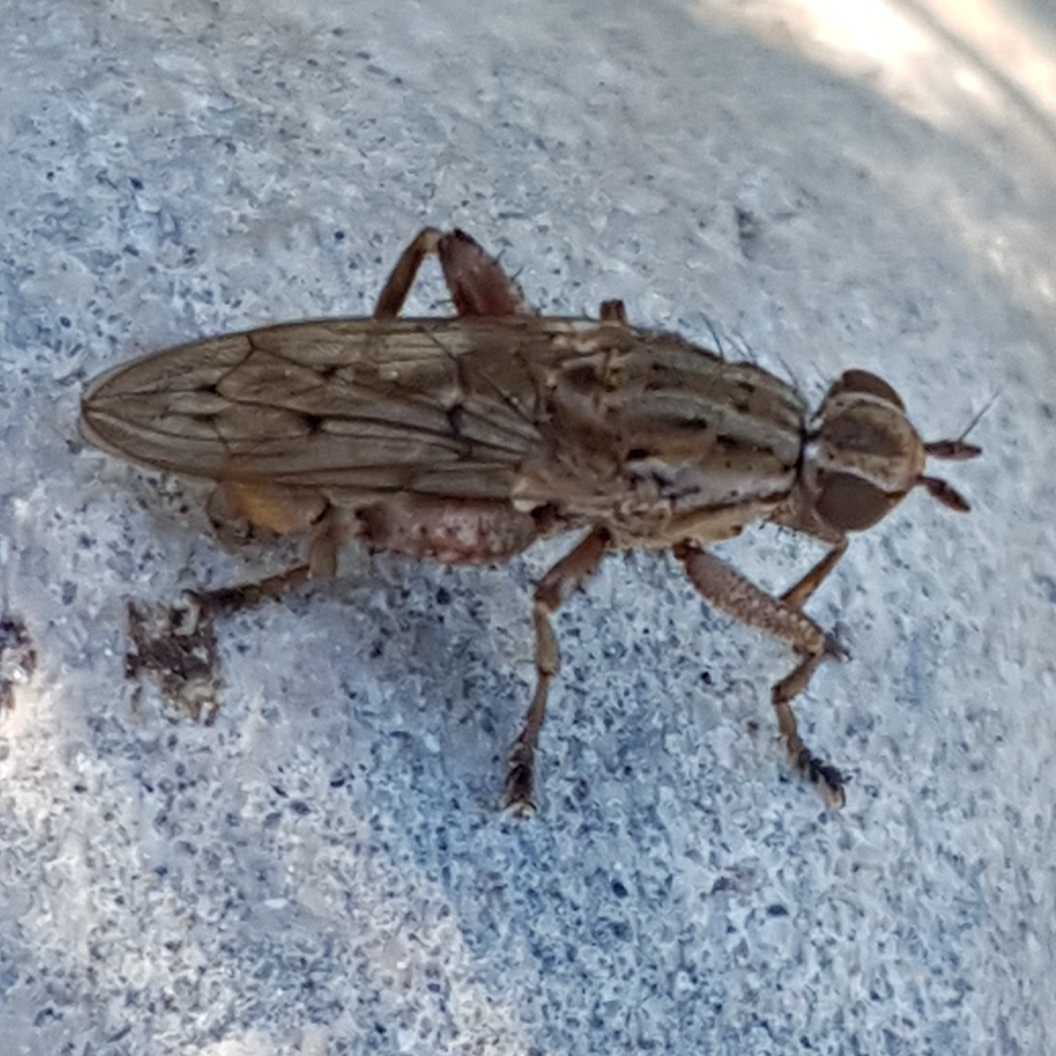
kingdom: Animalia
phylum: Arthropoda
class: Insecta
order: Diptera
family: Sciomyzidae
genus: Salticella
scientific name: Salticella fasciata
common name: Dune snail-killing fly
